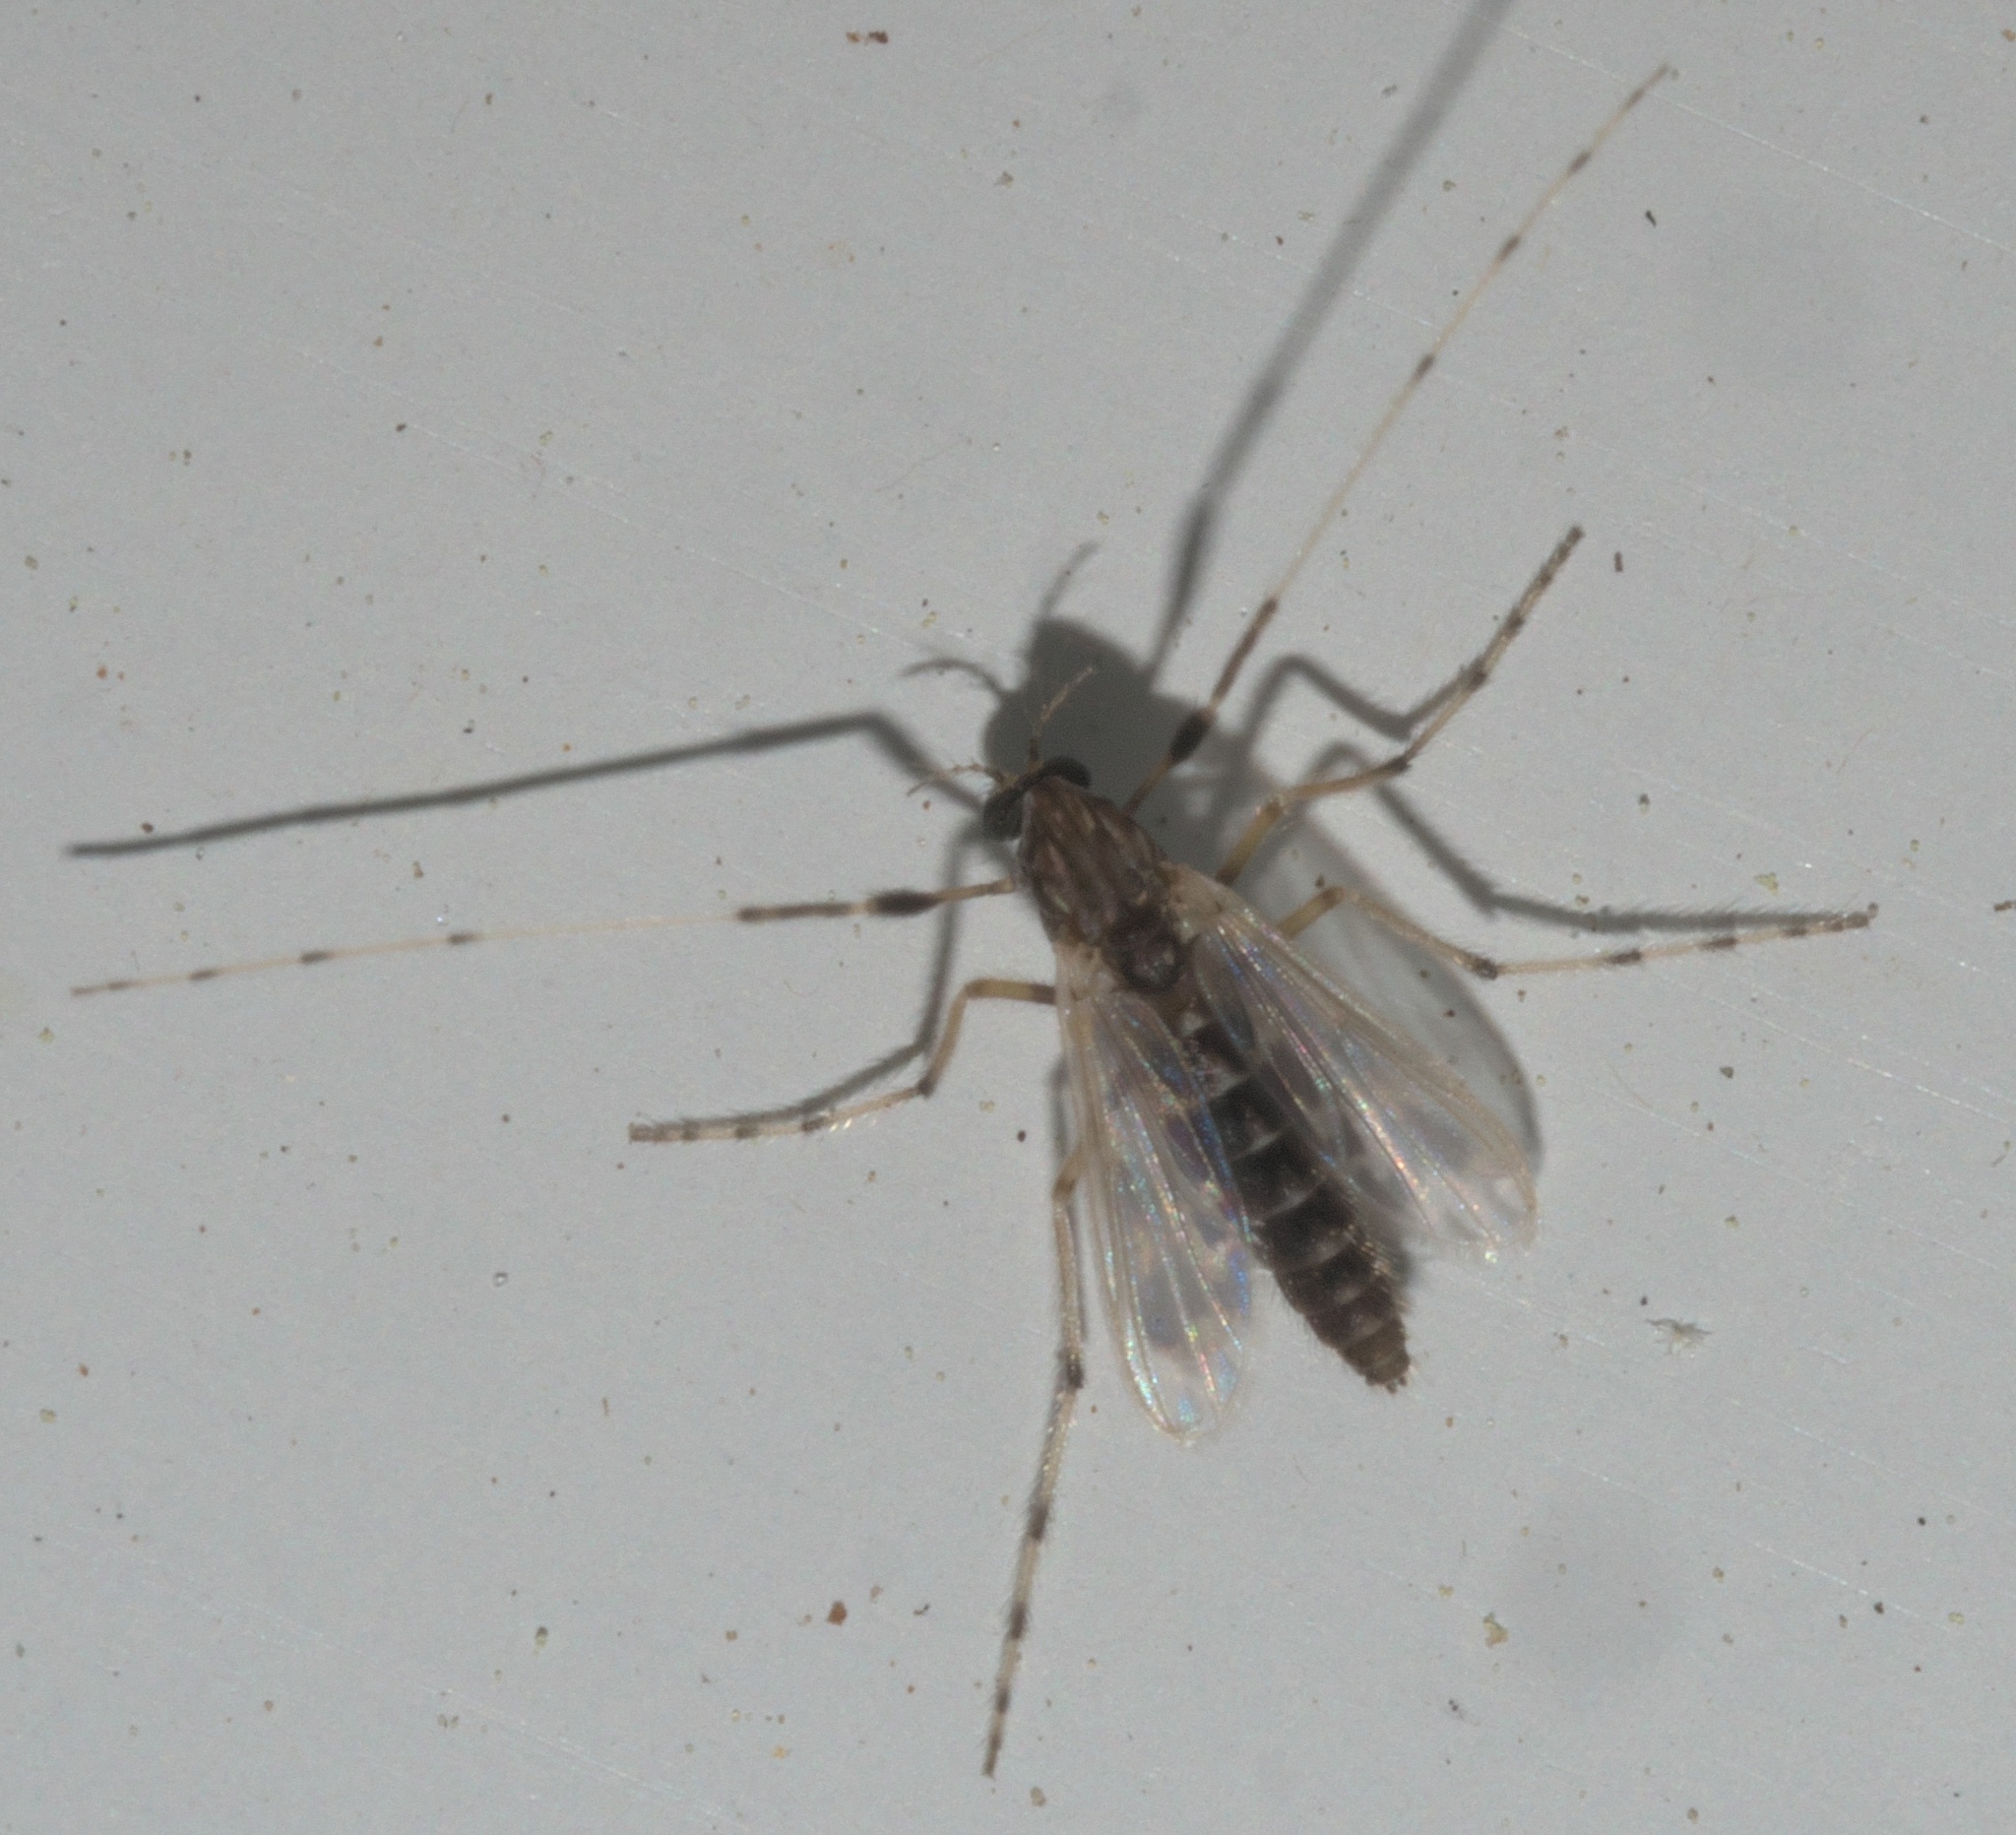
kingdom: Animalia
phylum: Arthropoda
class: Insecta
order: Diptera
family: Chironomidae
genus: Zavreliella
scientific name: Zavreliella marmorata
